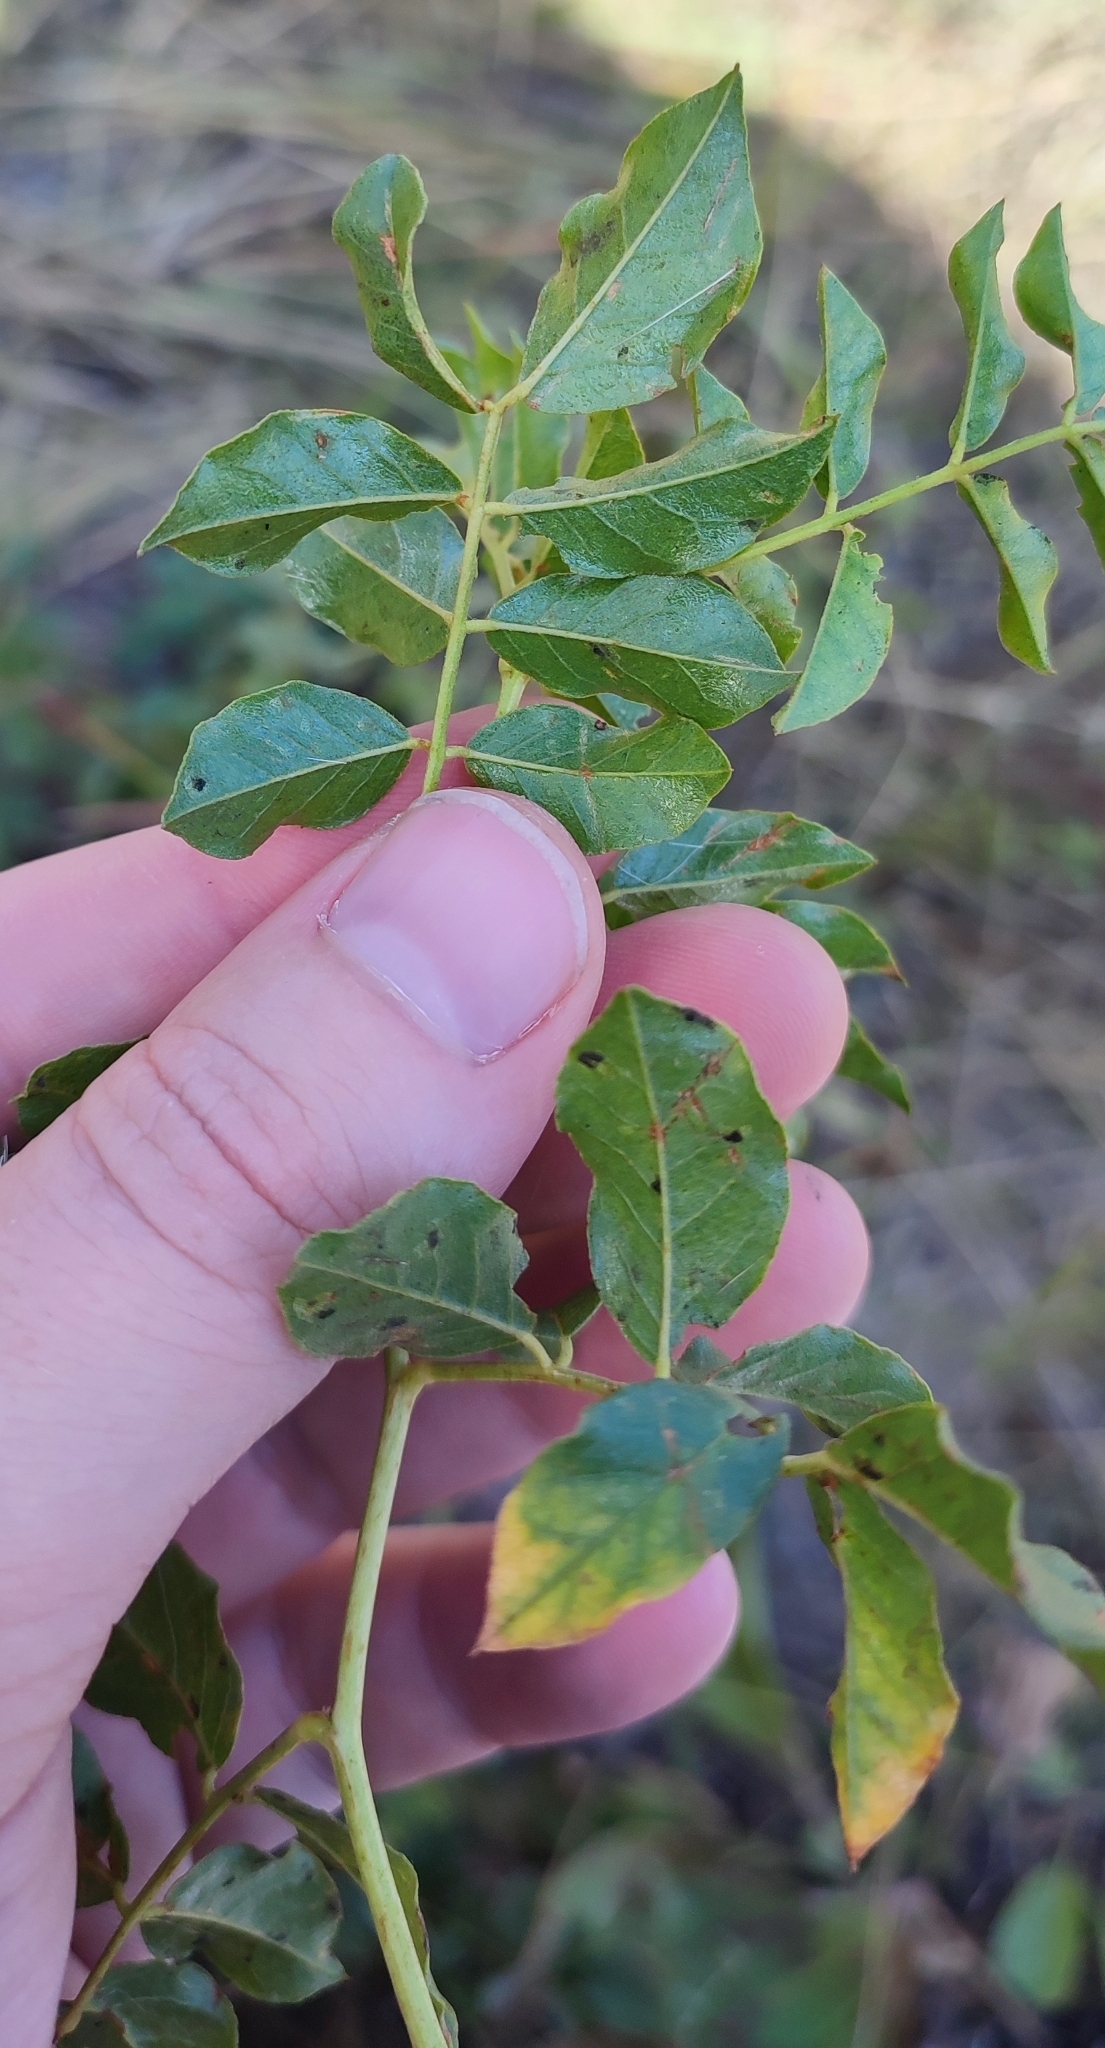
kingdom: Plantae
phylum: Tracheophyta
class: Magnoliopsida
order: Fabales
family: Fabaceae
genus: Glycyrrhiza
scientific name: Glycyrrhiza uralensis
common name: Chinese licorice
